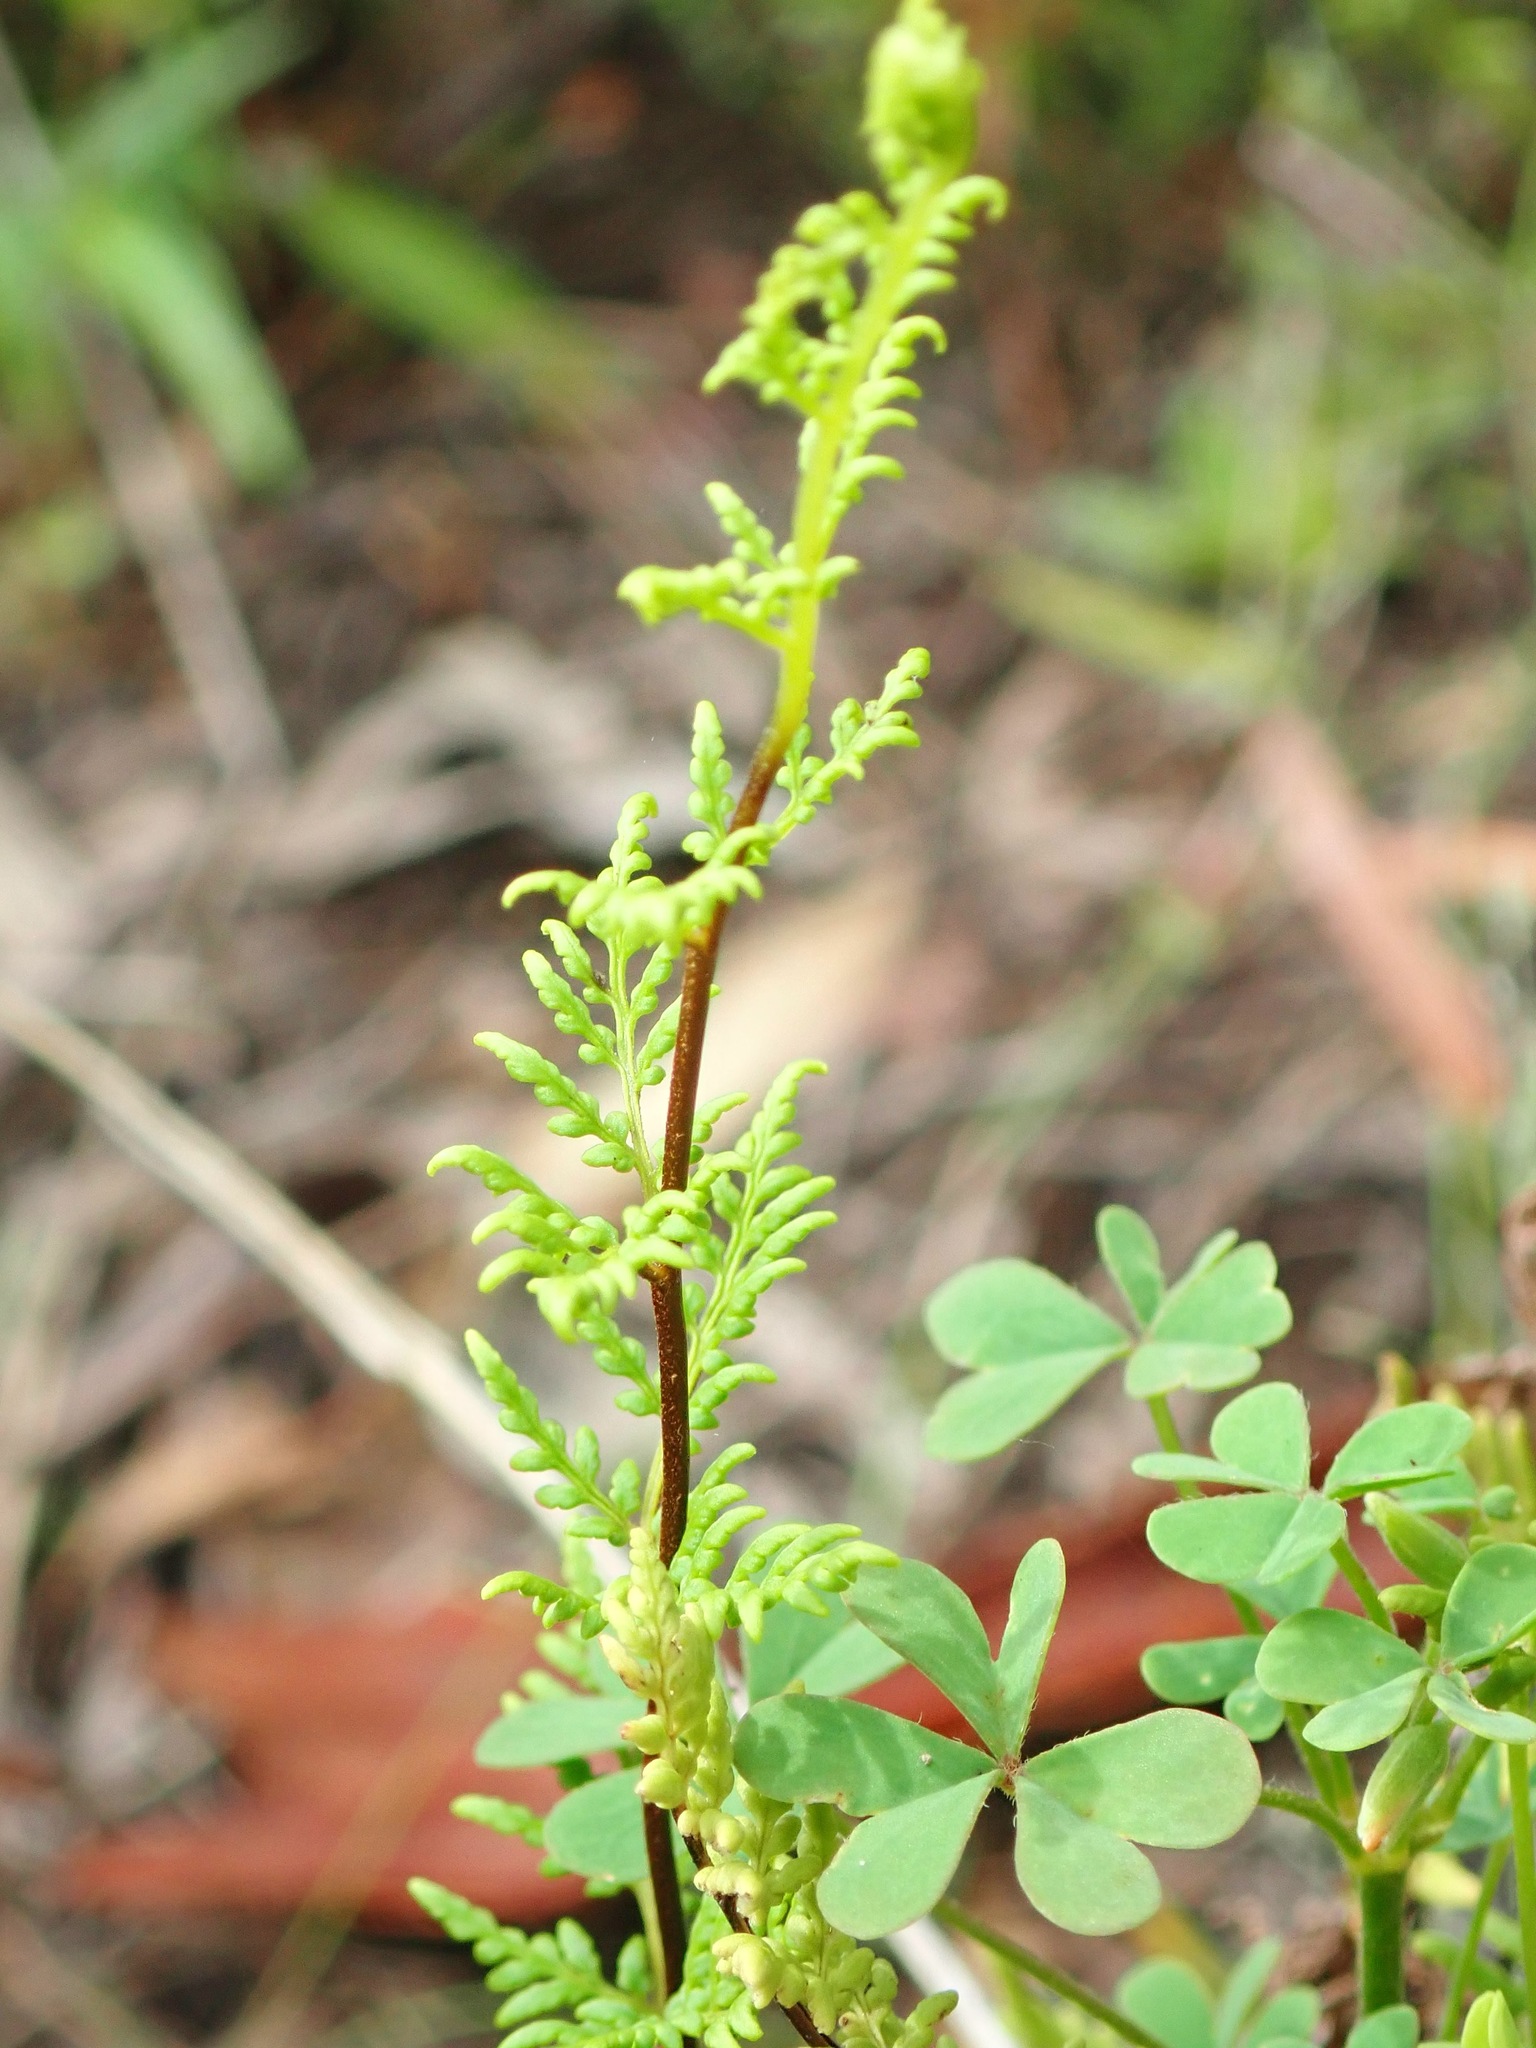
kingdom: Plantae
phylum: Tracheophyta
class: Polypodiopsida
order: Polypodiales
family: Pteridaceae
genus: Cheilanthes
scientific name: Cheilanthes sieberi
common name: Mulga fern
